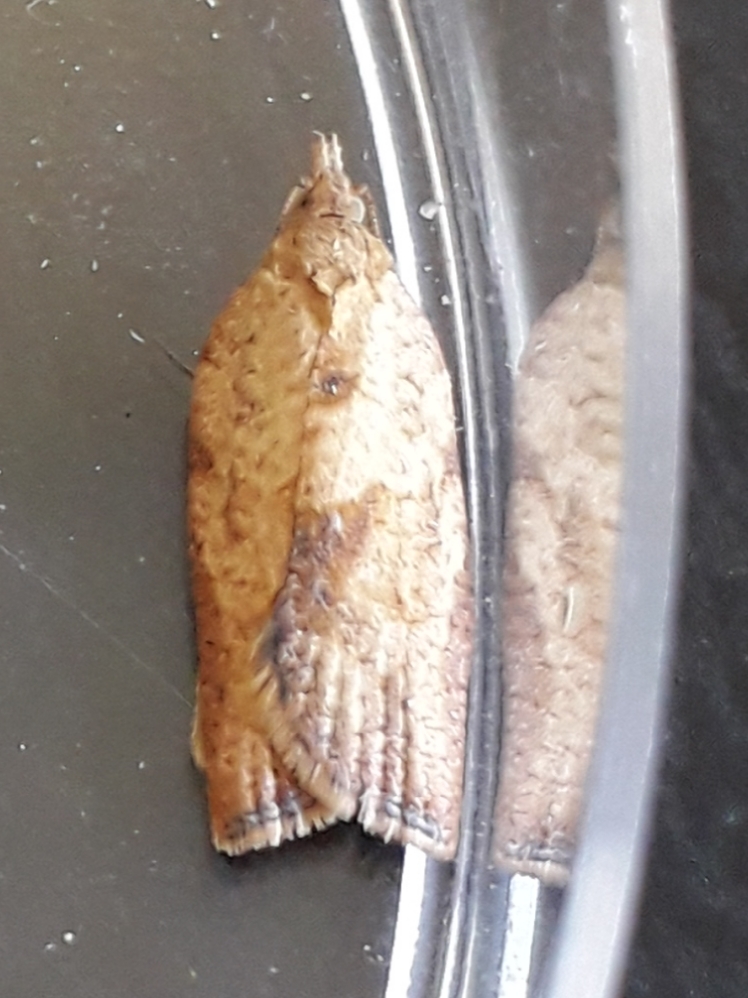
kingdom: Animalia
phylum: Arthropoda
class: Insecta
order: Lepidoptera
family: Tortricidae
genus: Epiphyas
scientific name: Epiphyas postvittana
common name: Light brown apple moth
